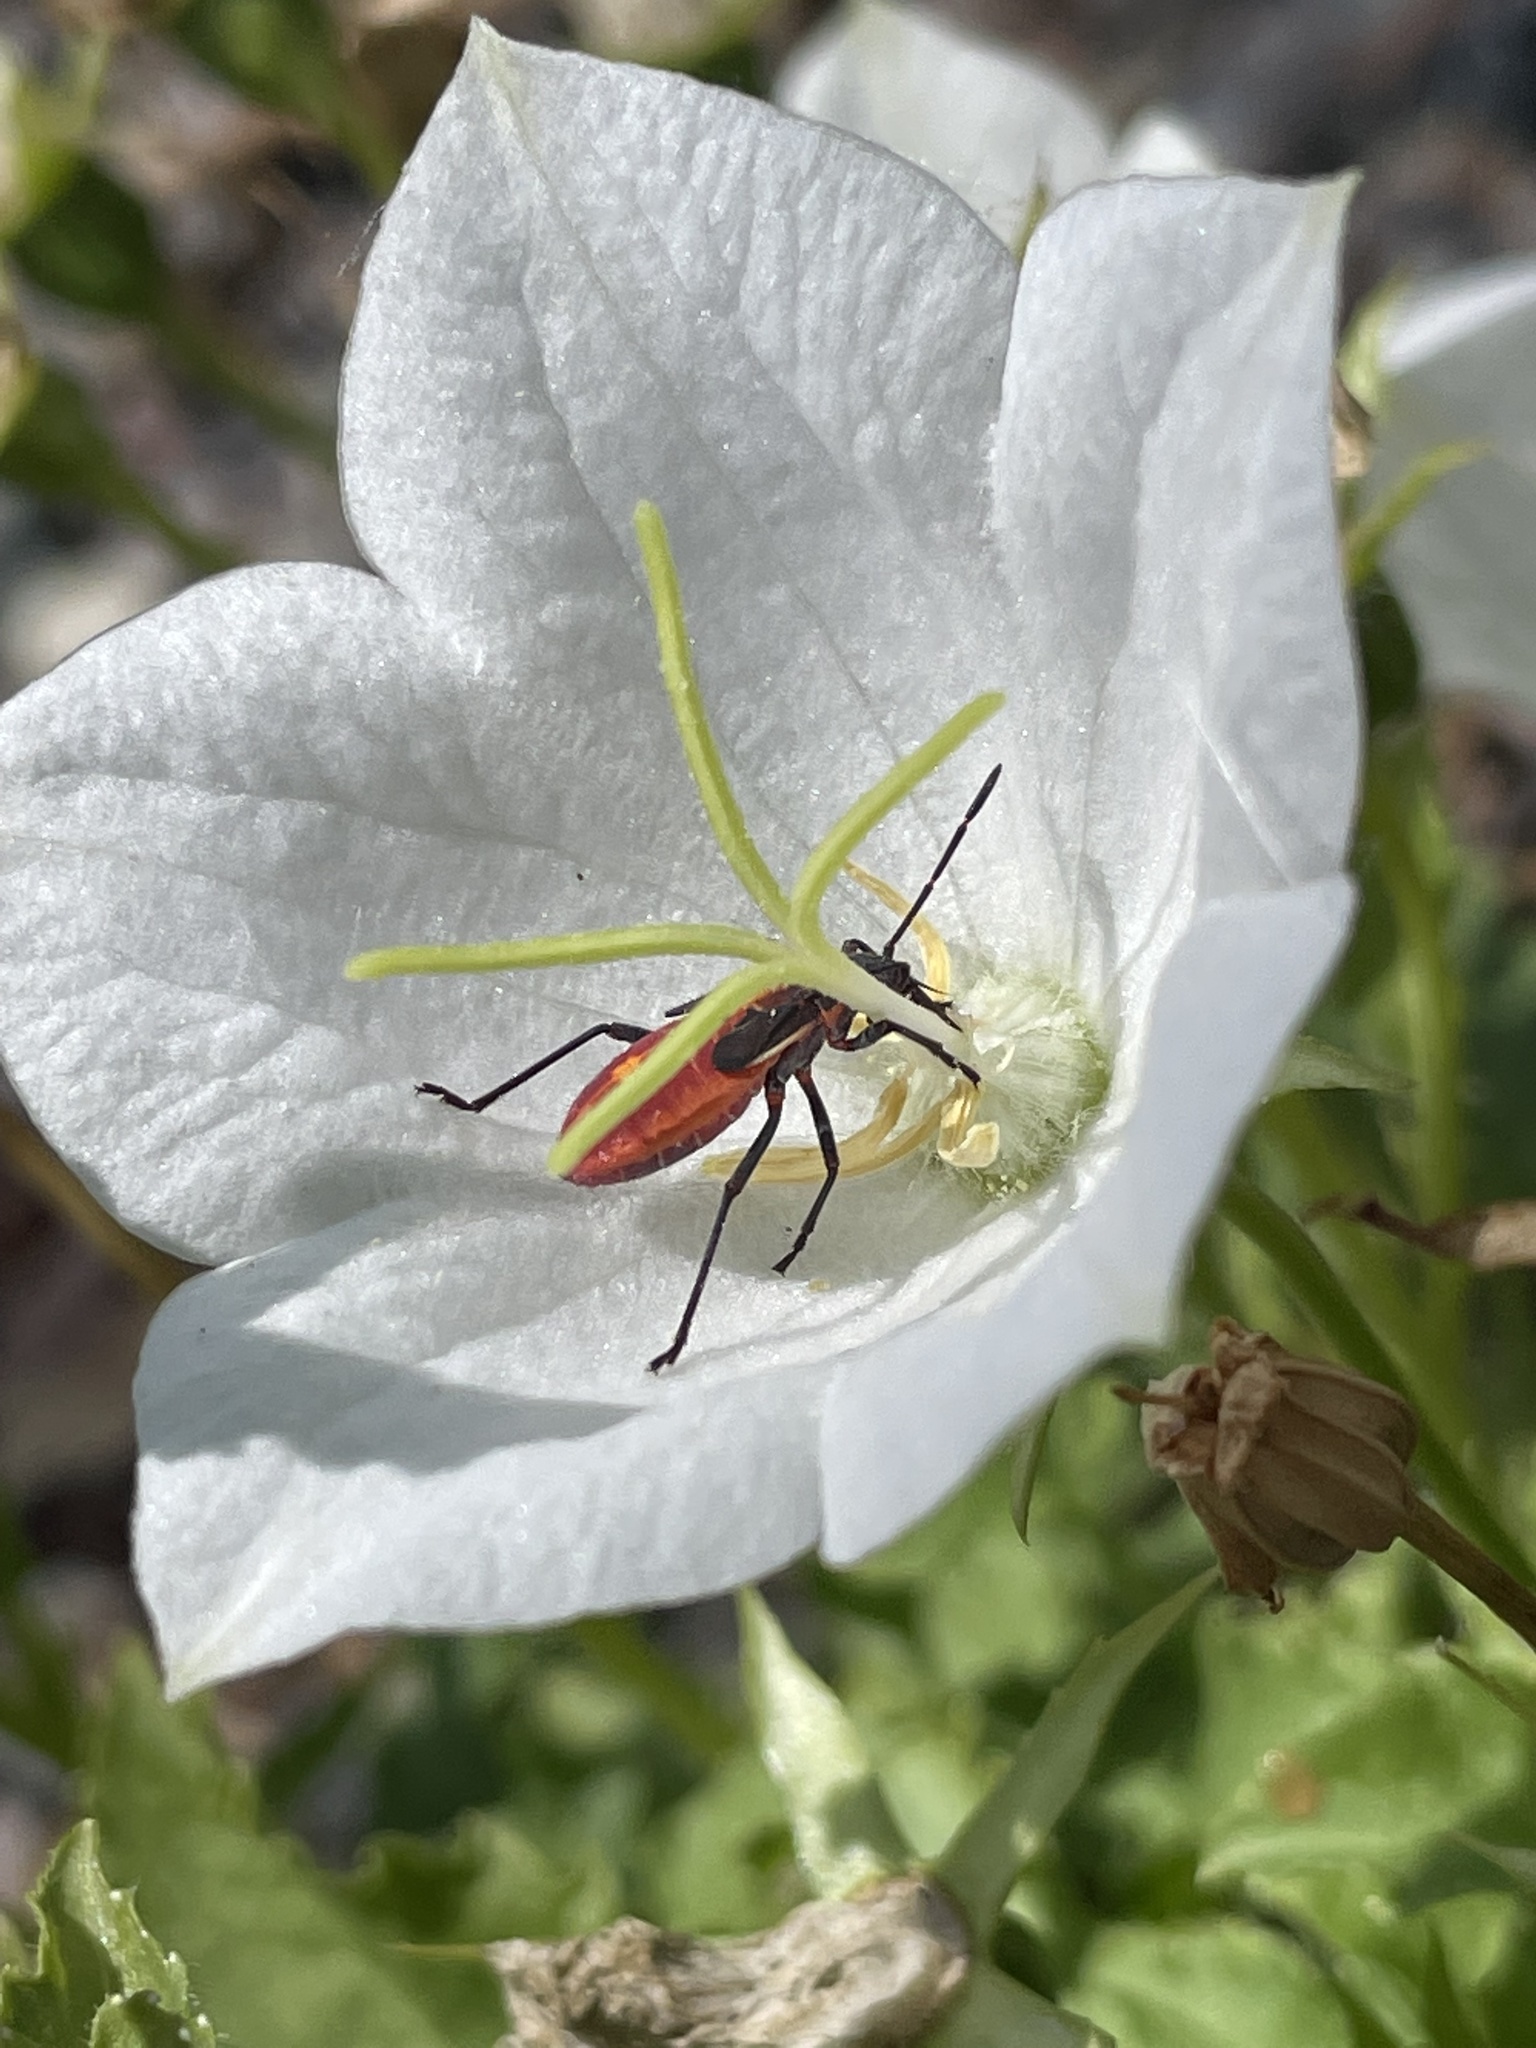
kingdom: Animalia
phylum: Arthropoda
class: Insecta
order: Hemiptera
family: Rhopalidae
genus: Boisea
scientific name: Boisea trivittata
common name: Boxelder bug
